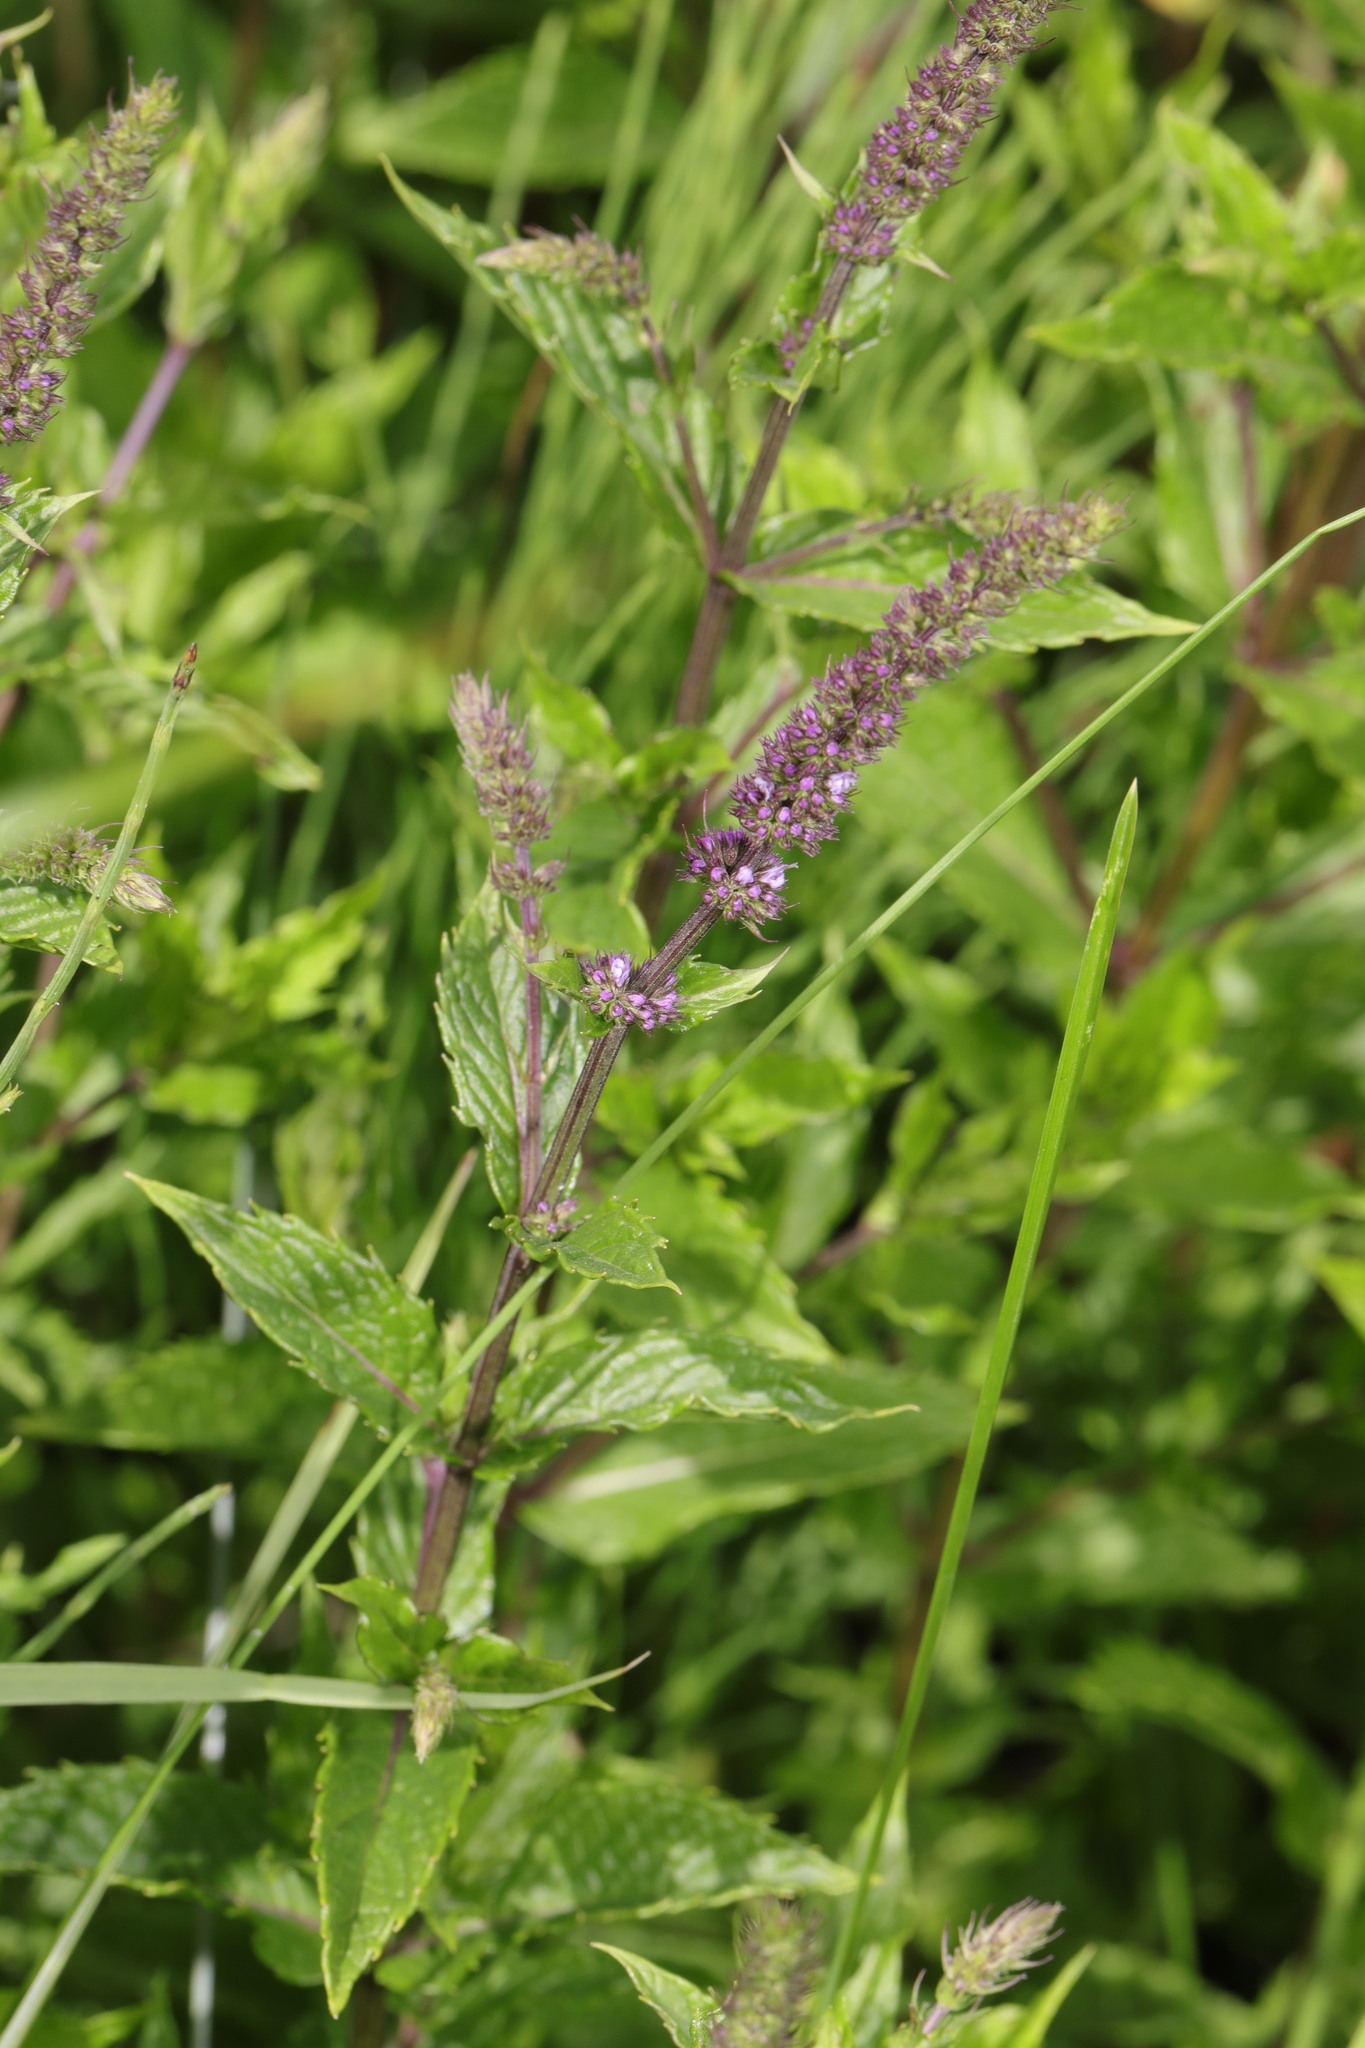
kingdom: Plantae
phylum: Tracheophyta
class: Magnoliopsida
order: Lamiales
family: Lamiaceae
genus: Mentha
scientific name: Mentha spicata
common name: Spearmint
